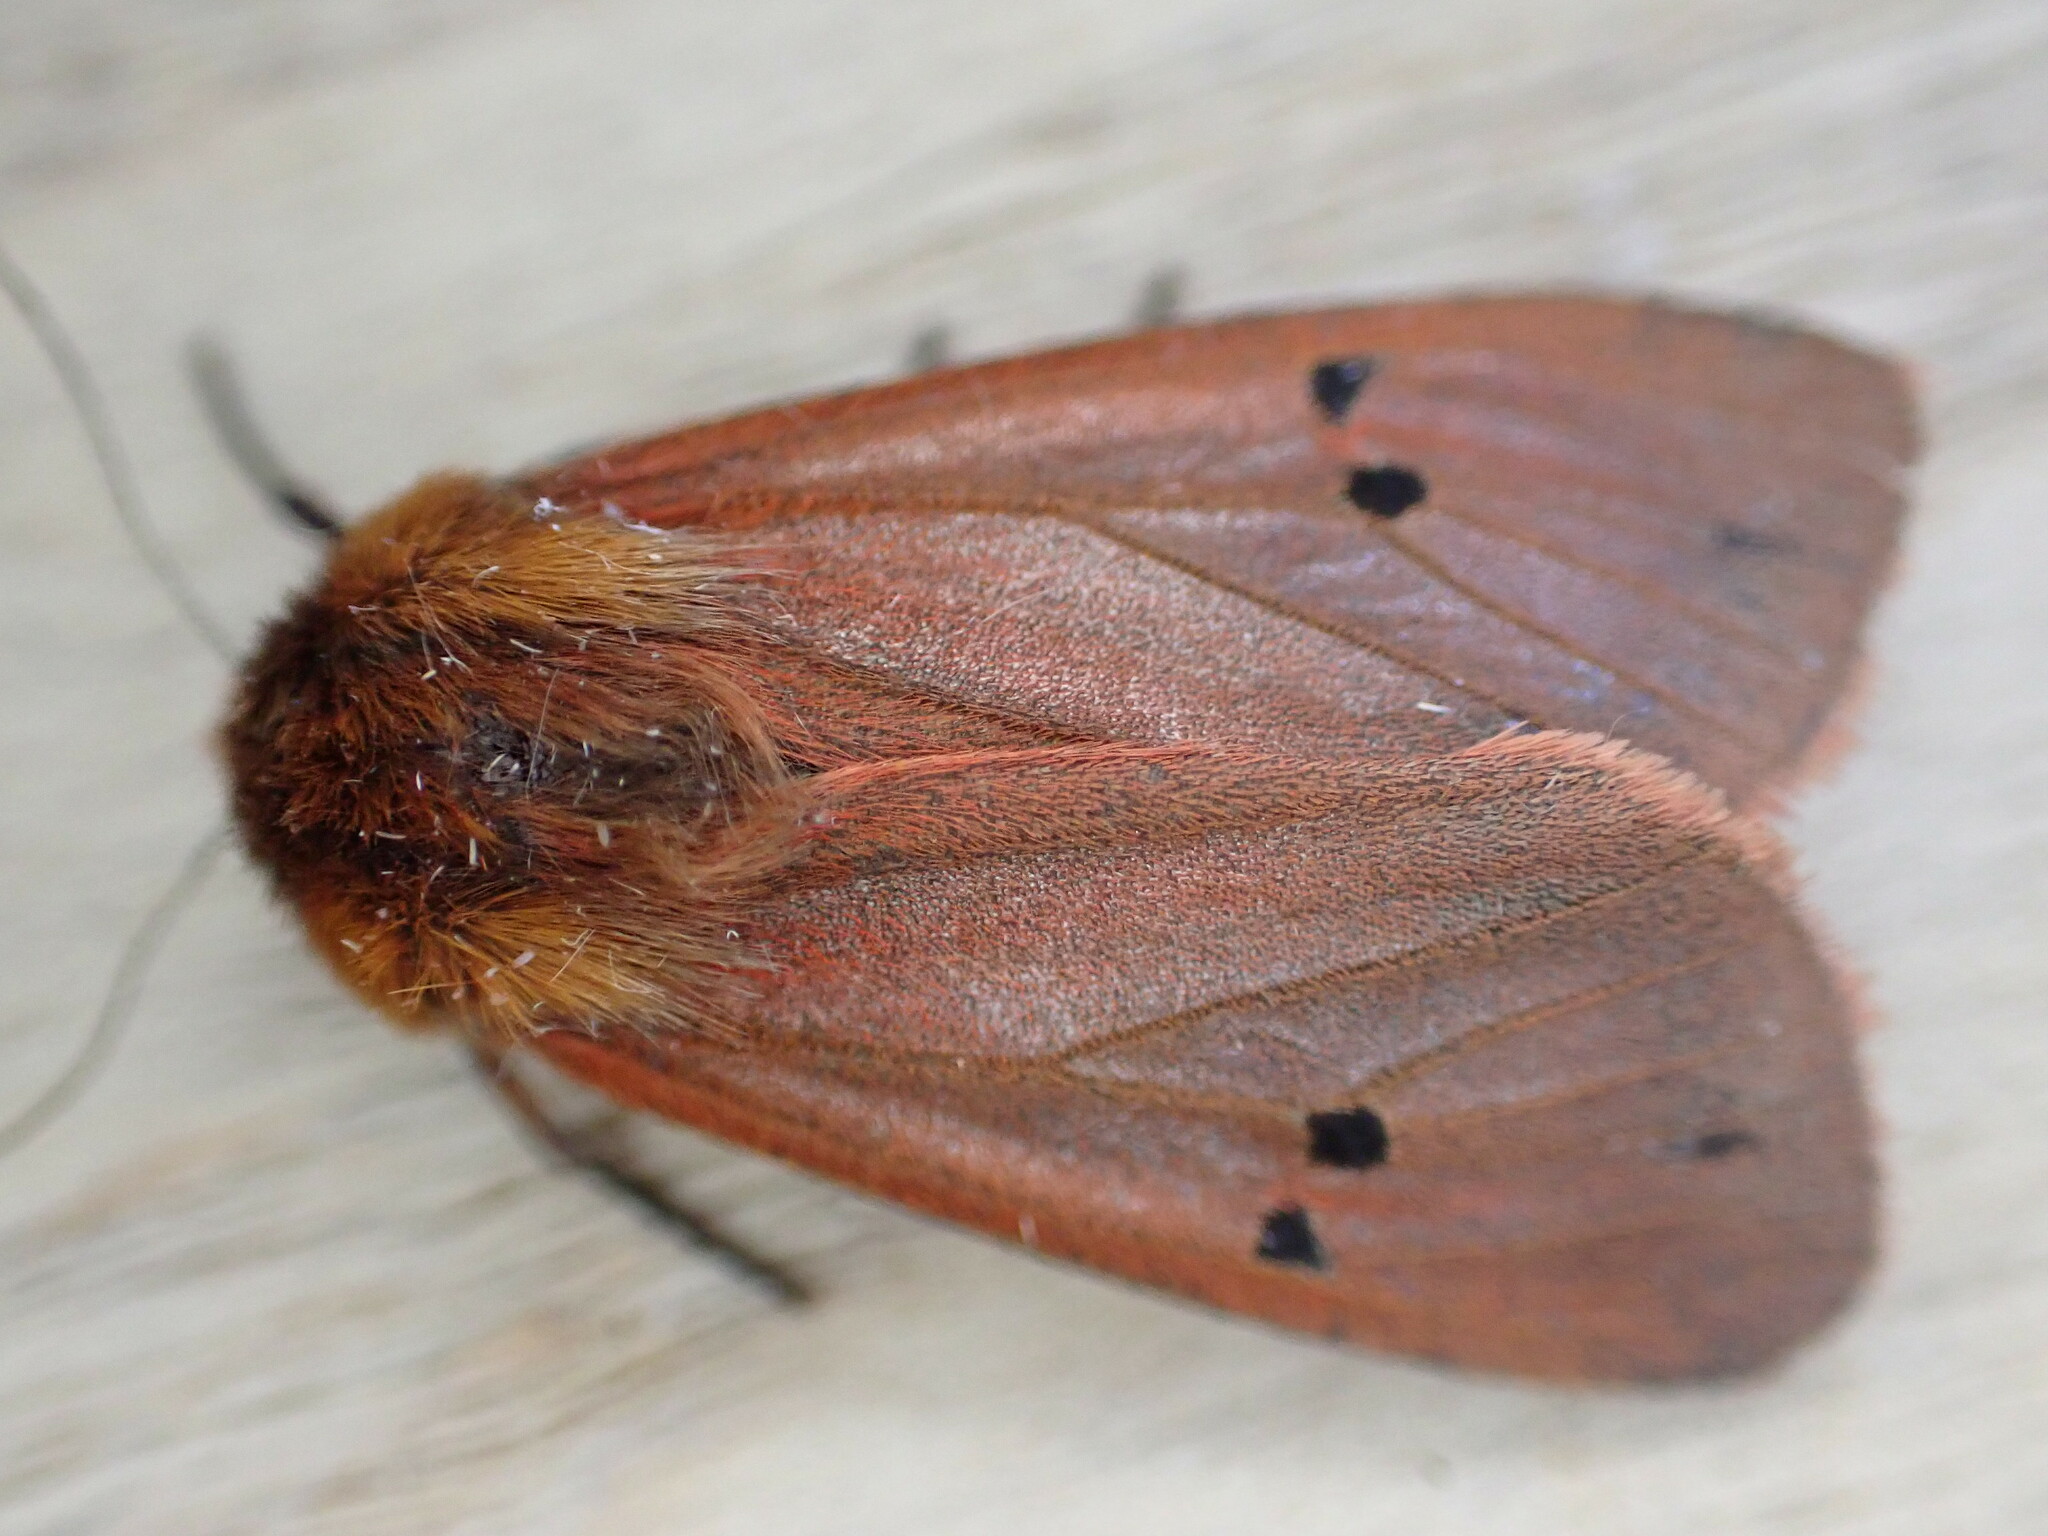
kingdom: Animalia
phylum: Arthropoda
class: Insecta
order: Lepidoptera
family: Erebidae
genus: Phragmatobia
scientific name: Phragmatobia fuliginosa
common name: Ruby tiger
